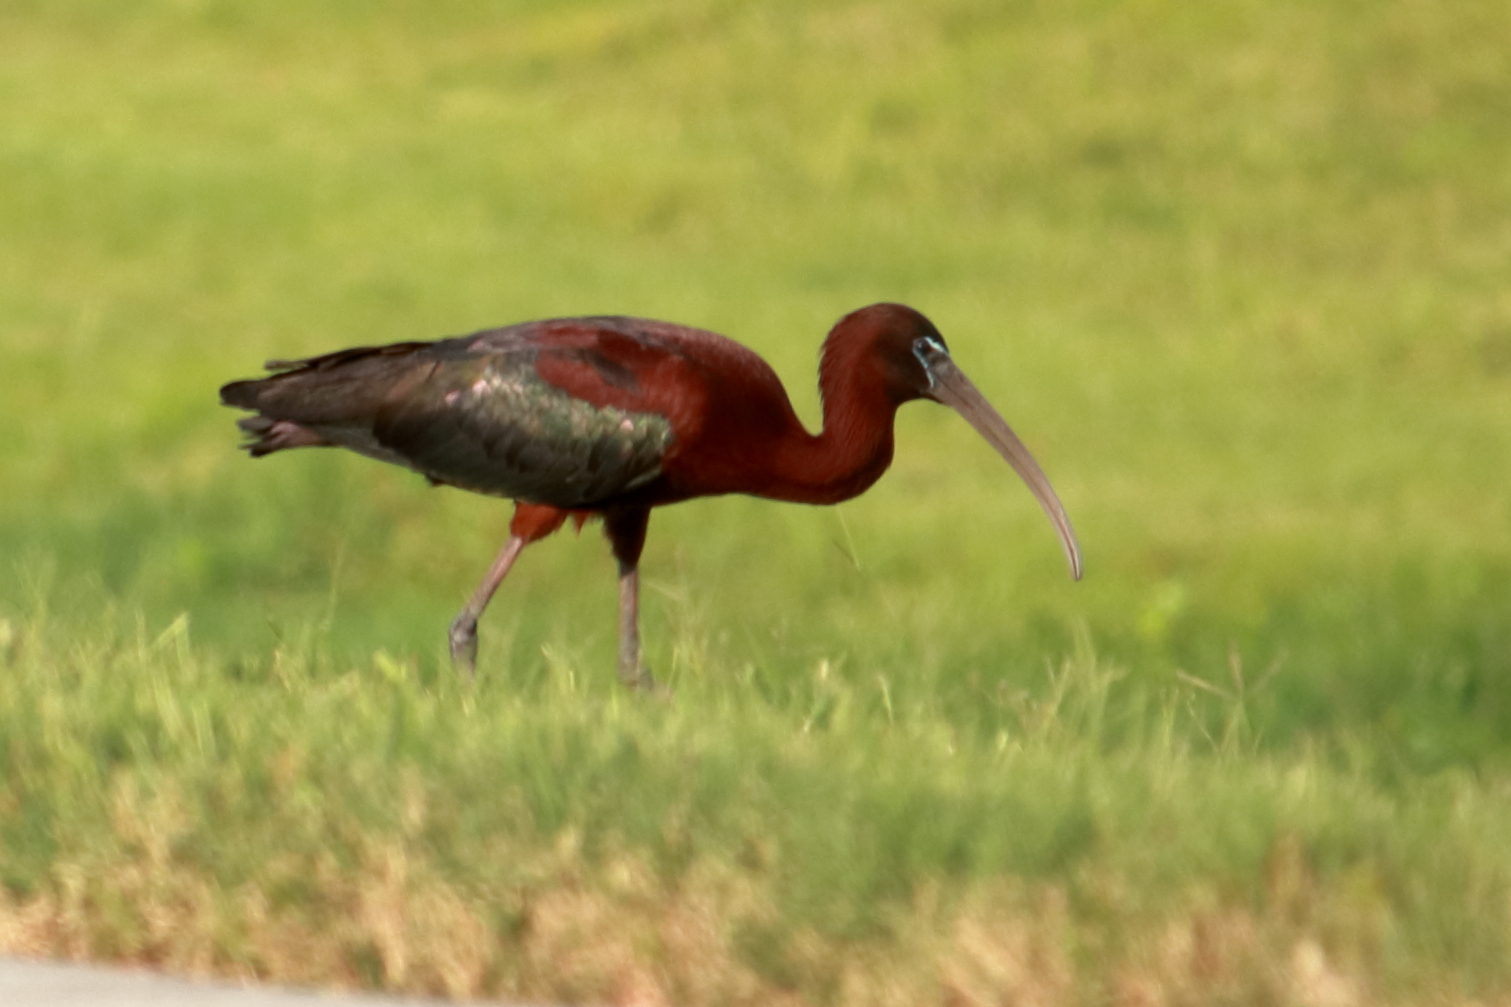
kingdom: Animalia
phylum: Chordata
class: Aves
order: Pelecaniformes
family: Threskiornithidae
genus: Plegadis
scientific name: Plegadis falcinellus
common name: Glossy ibis
